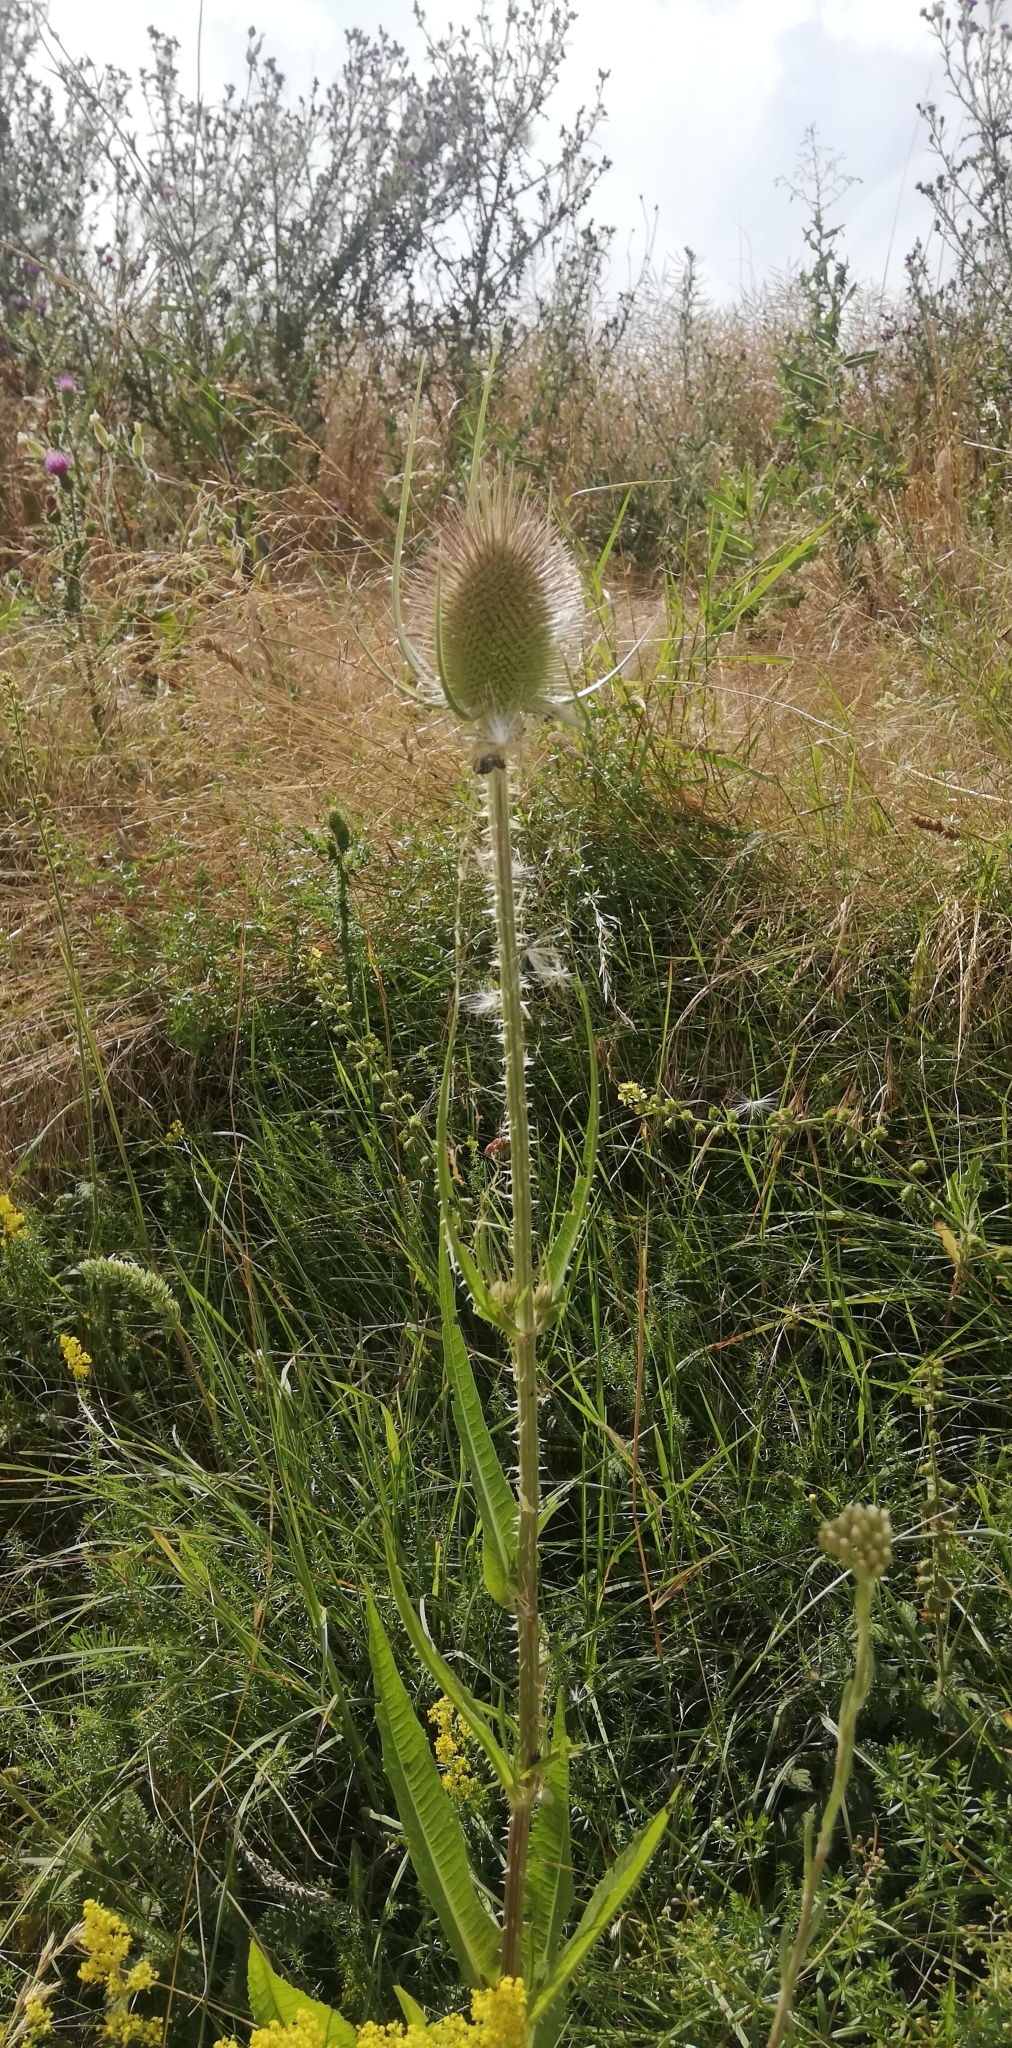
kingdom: Plantae
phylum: Tracheophyta
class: Magnoliopsida
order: Dipsacales
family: Caprifoliaceae
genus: Dipsacus
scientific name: Dipsacus fullonum
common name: Teasel
